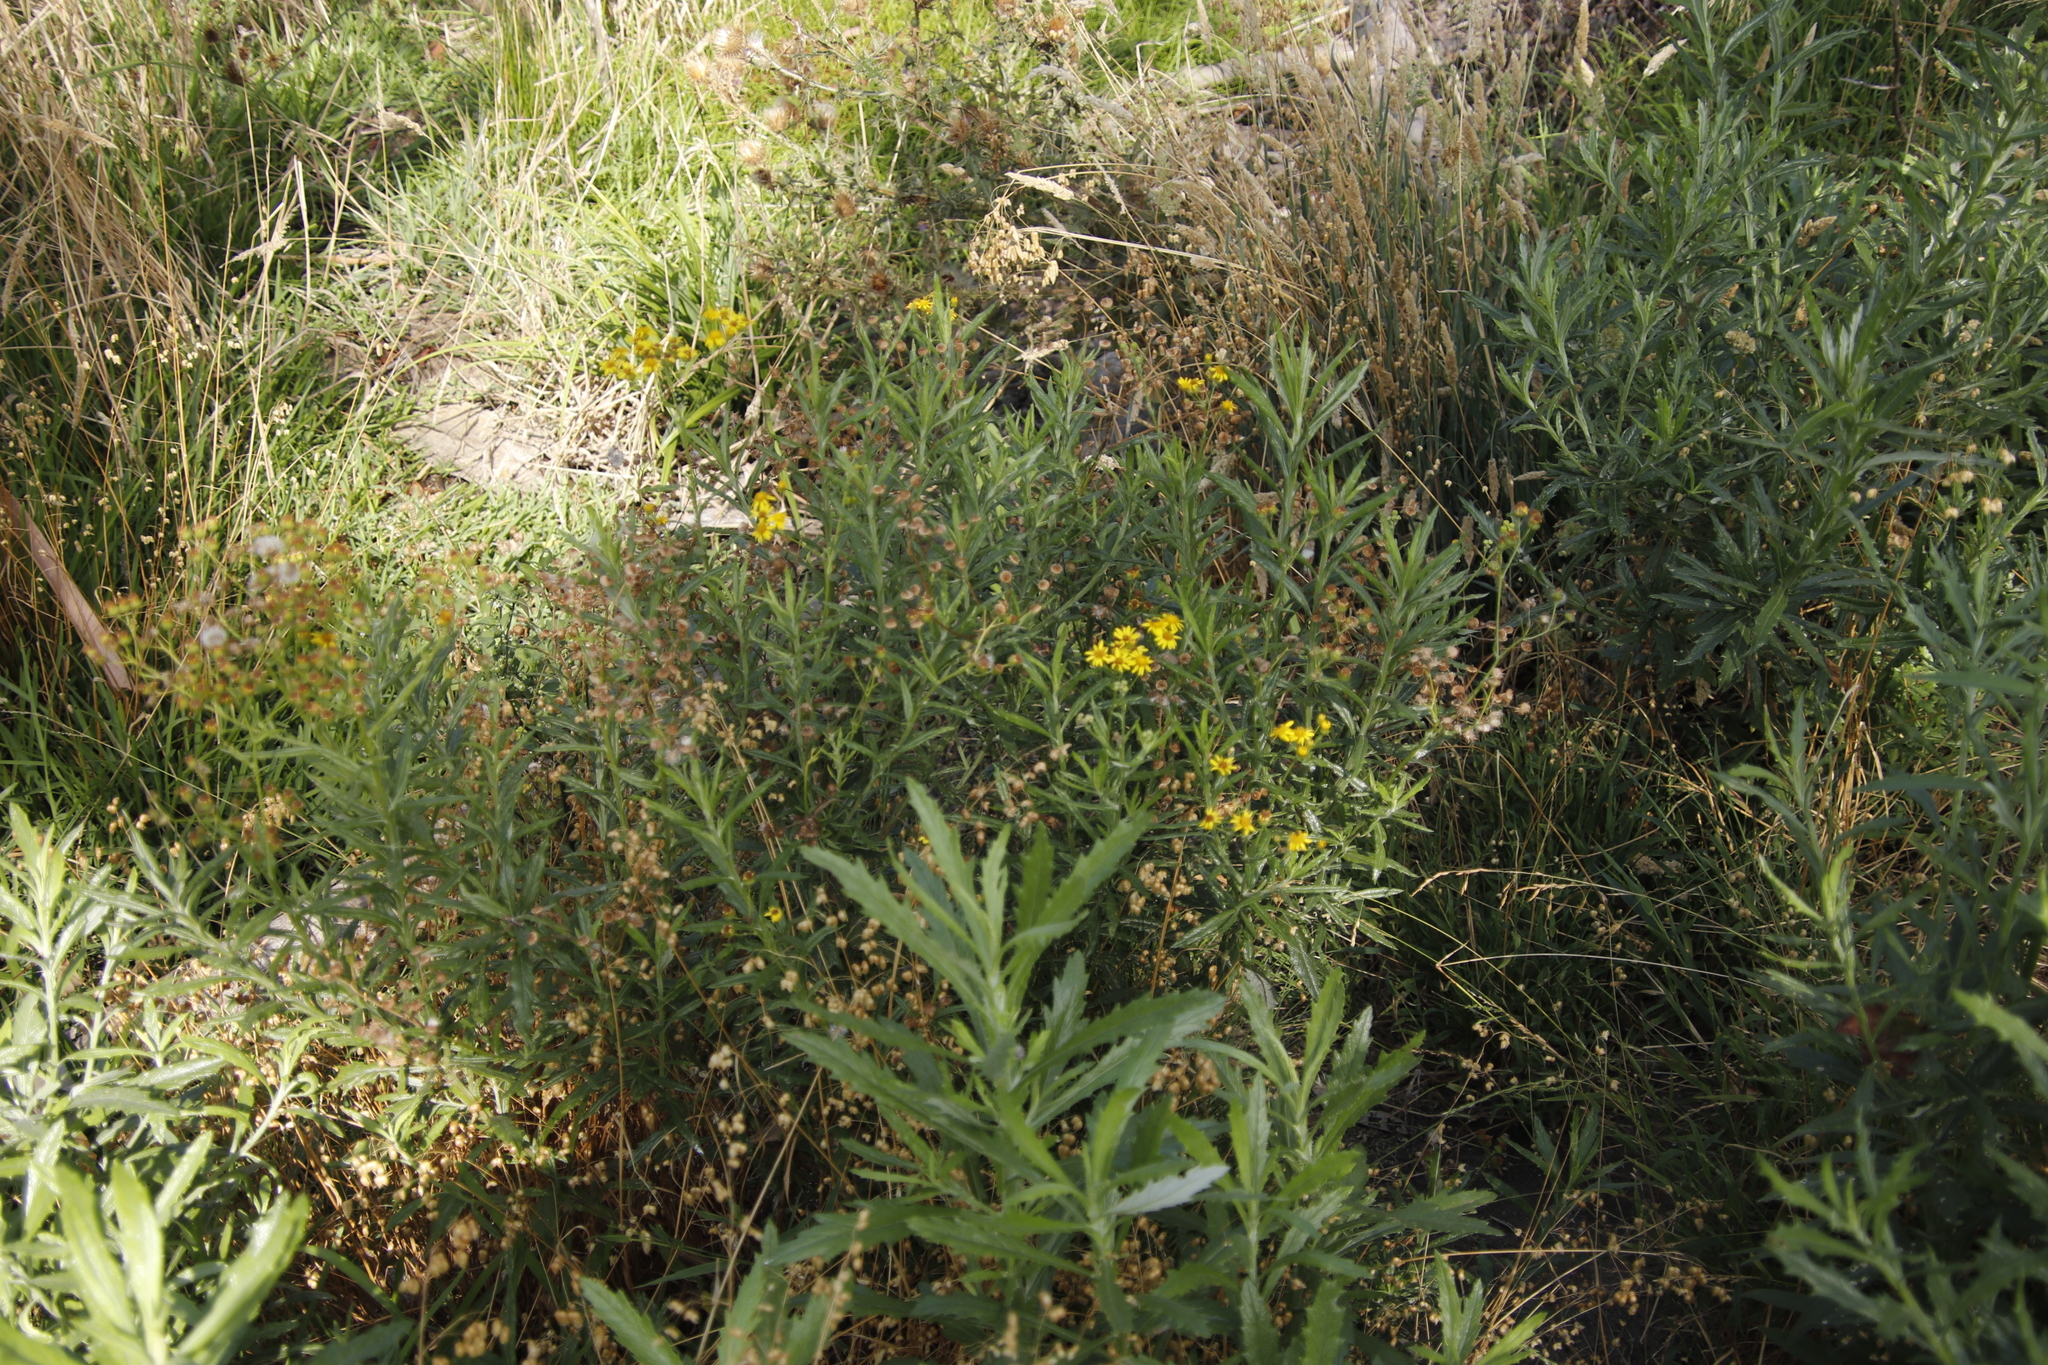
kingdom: Plantae
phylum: Tracheophyta
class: Magnoliopsida
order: Asterales
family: Asteraceae
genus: Senecio
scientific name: Senecio pterophorus
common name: Shoddy ragwort
